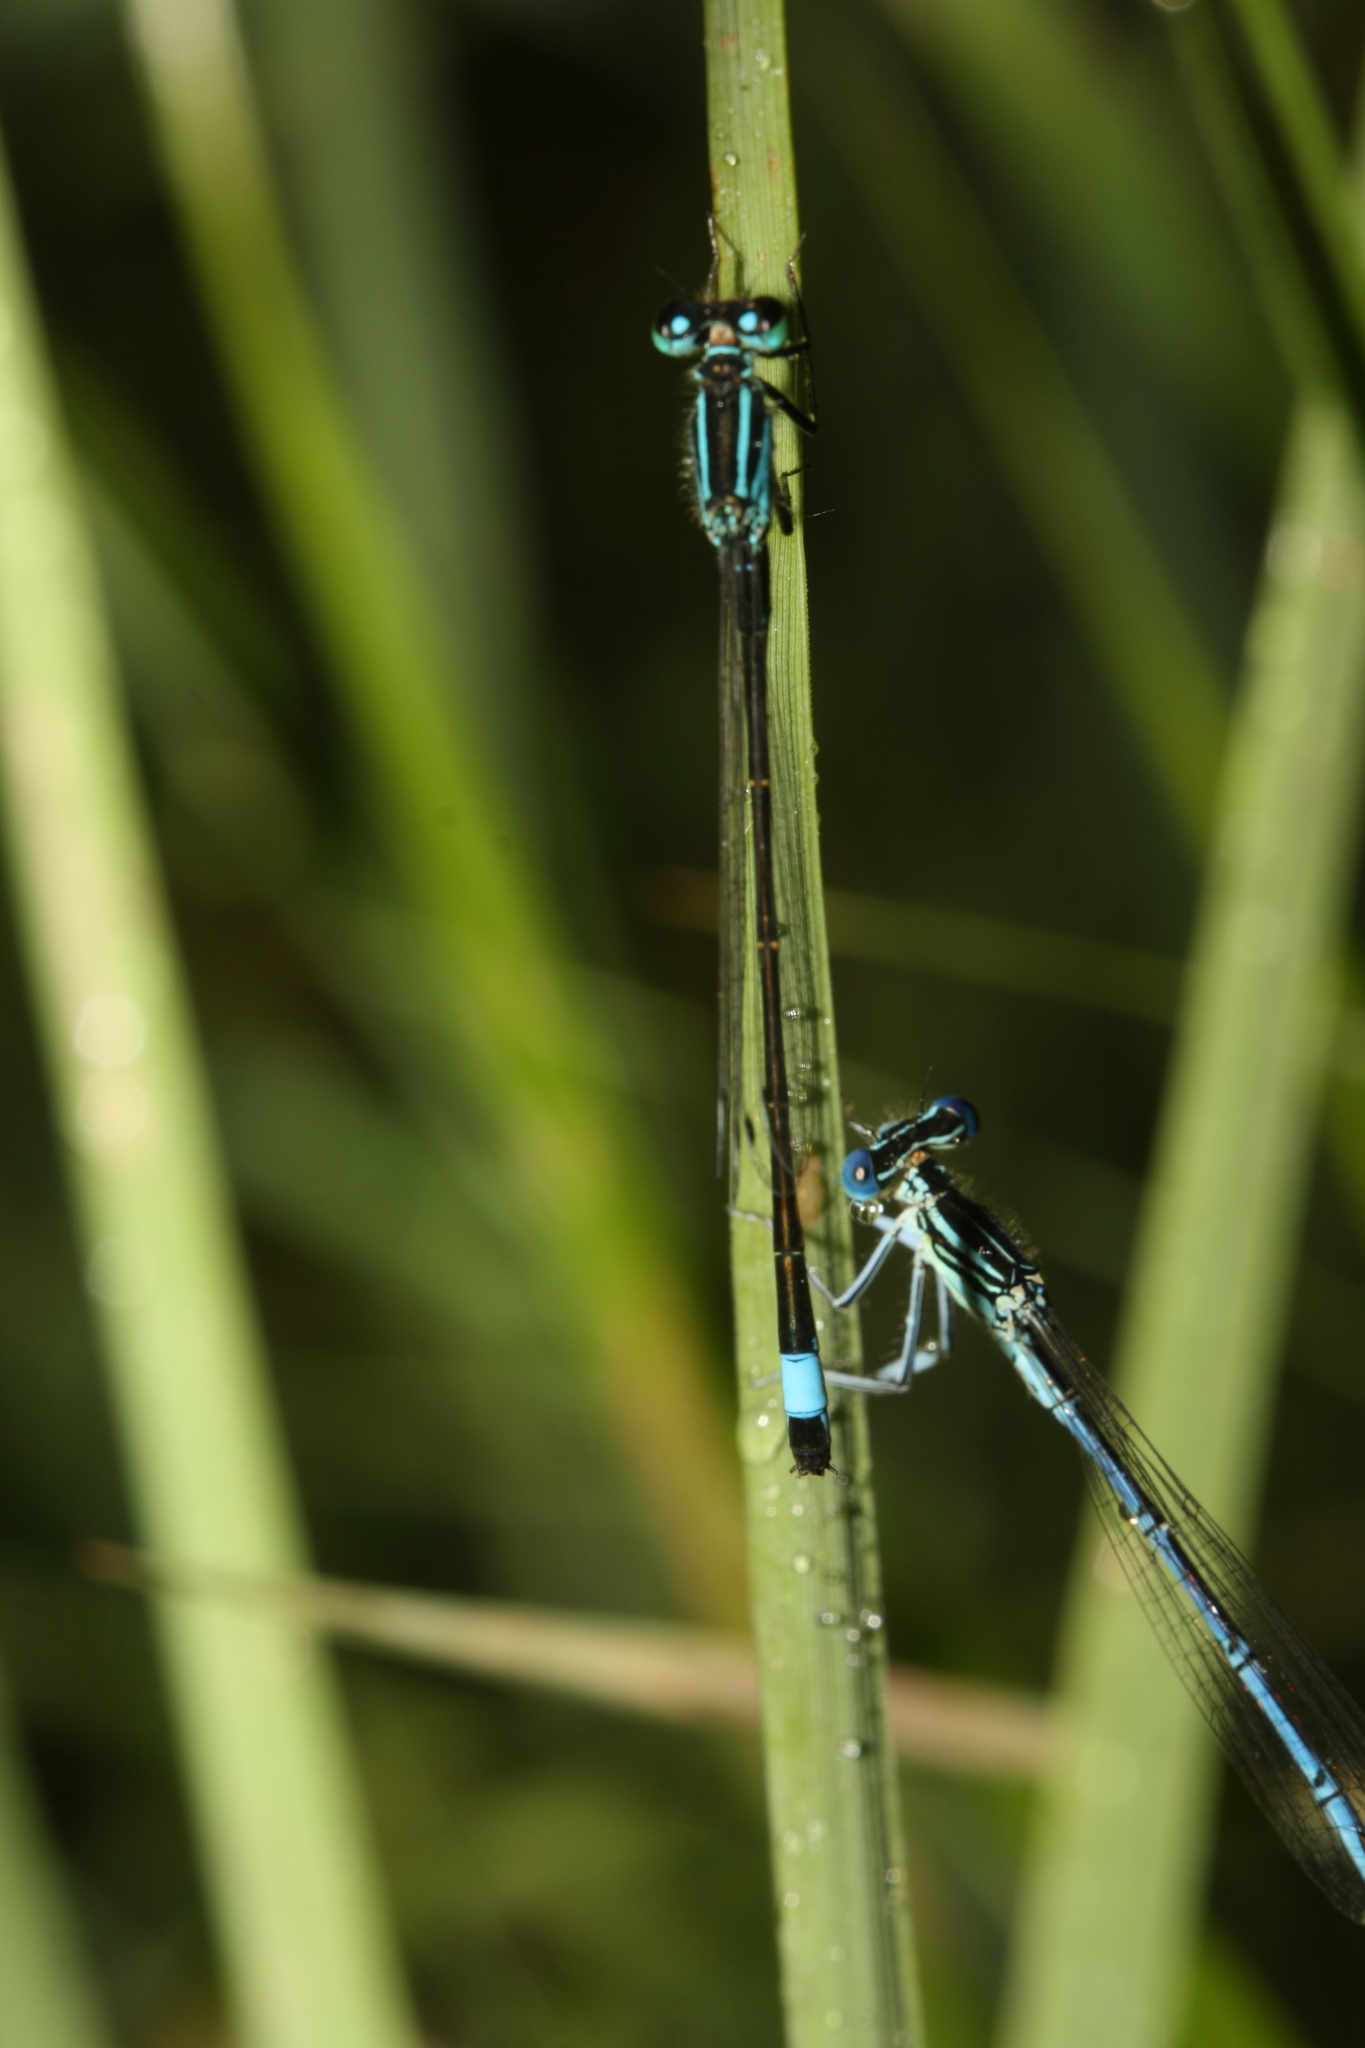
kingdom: Animalia
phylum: Arthropoda
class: Insecta
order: Odonata
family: Coenagrionidae
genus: Ischnura
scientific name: Ischnura elegans
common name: Blue-tailed damselfly
